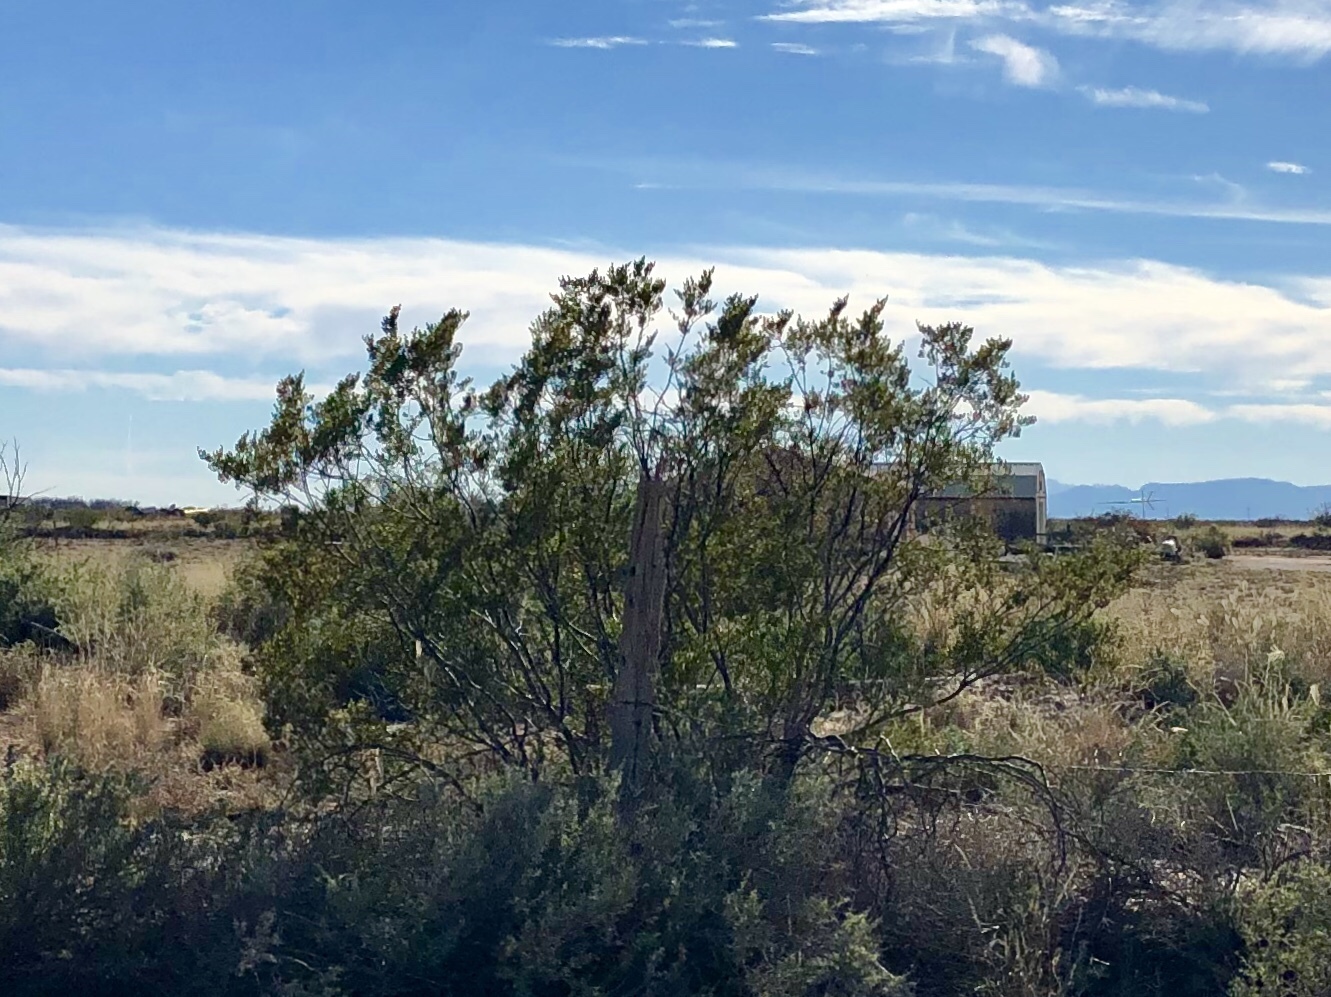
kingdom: Plantae
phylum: Tracheophyta
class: Magnoliopsida
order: Zygophyllales
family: Zygophyllaceae
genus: Larrea
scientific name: Larrea tridentata
